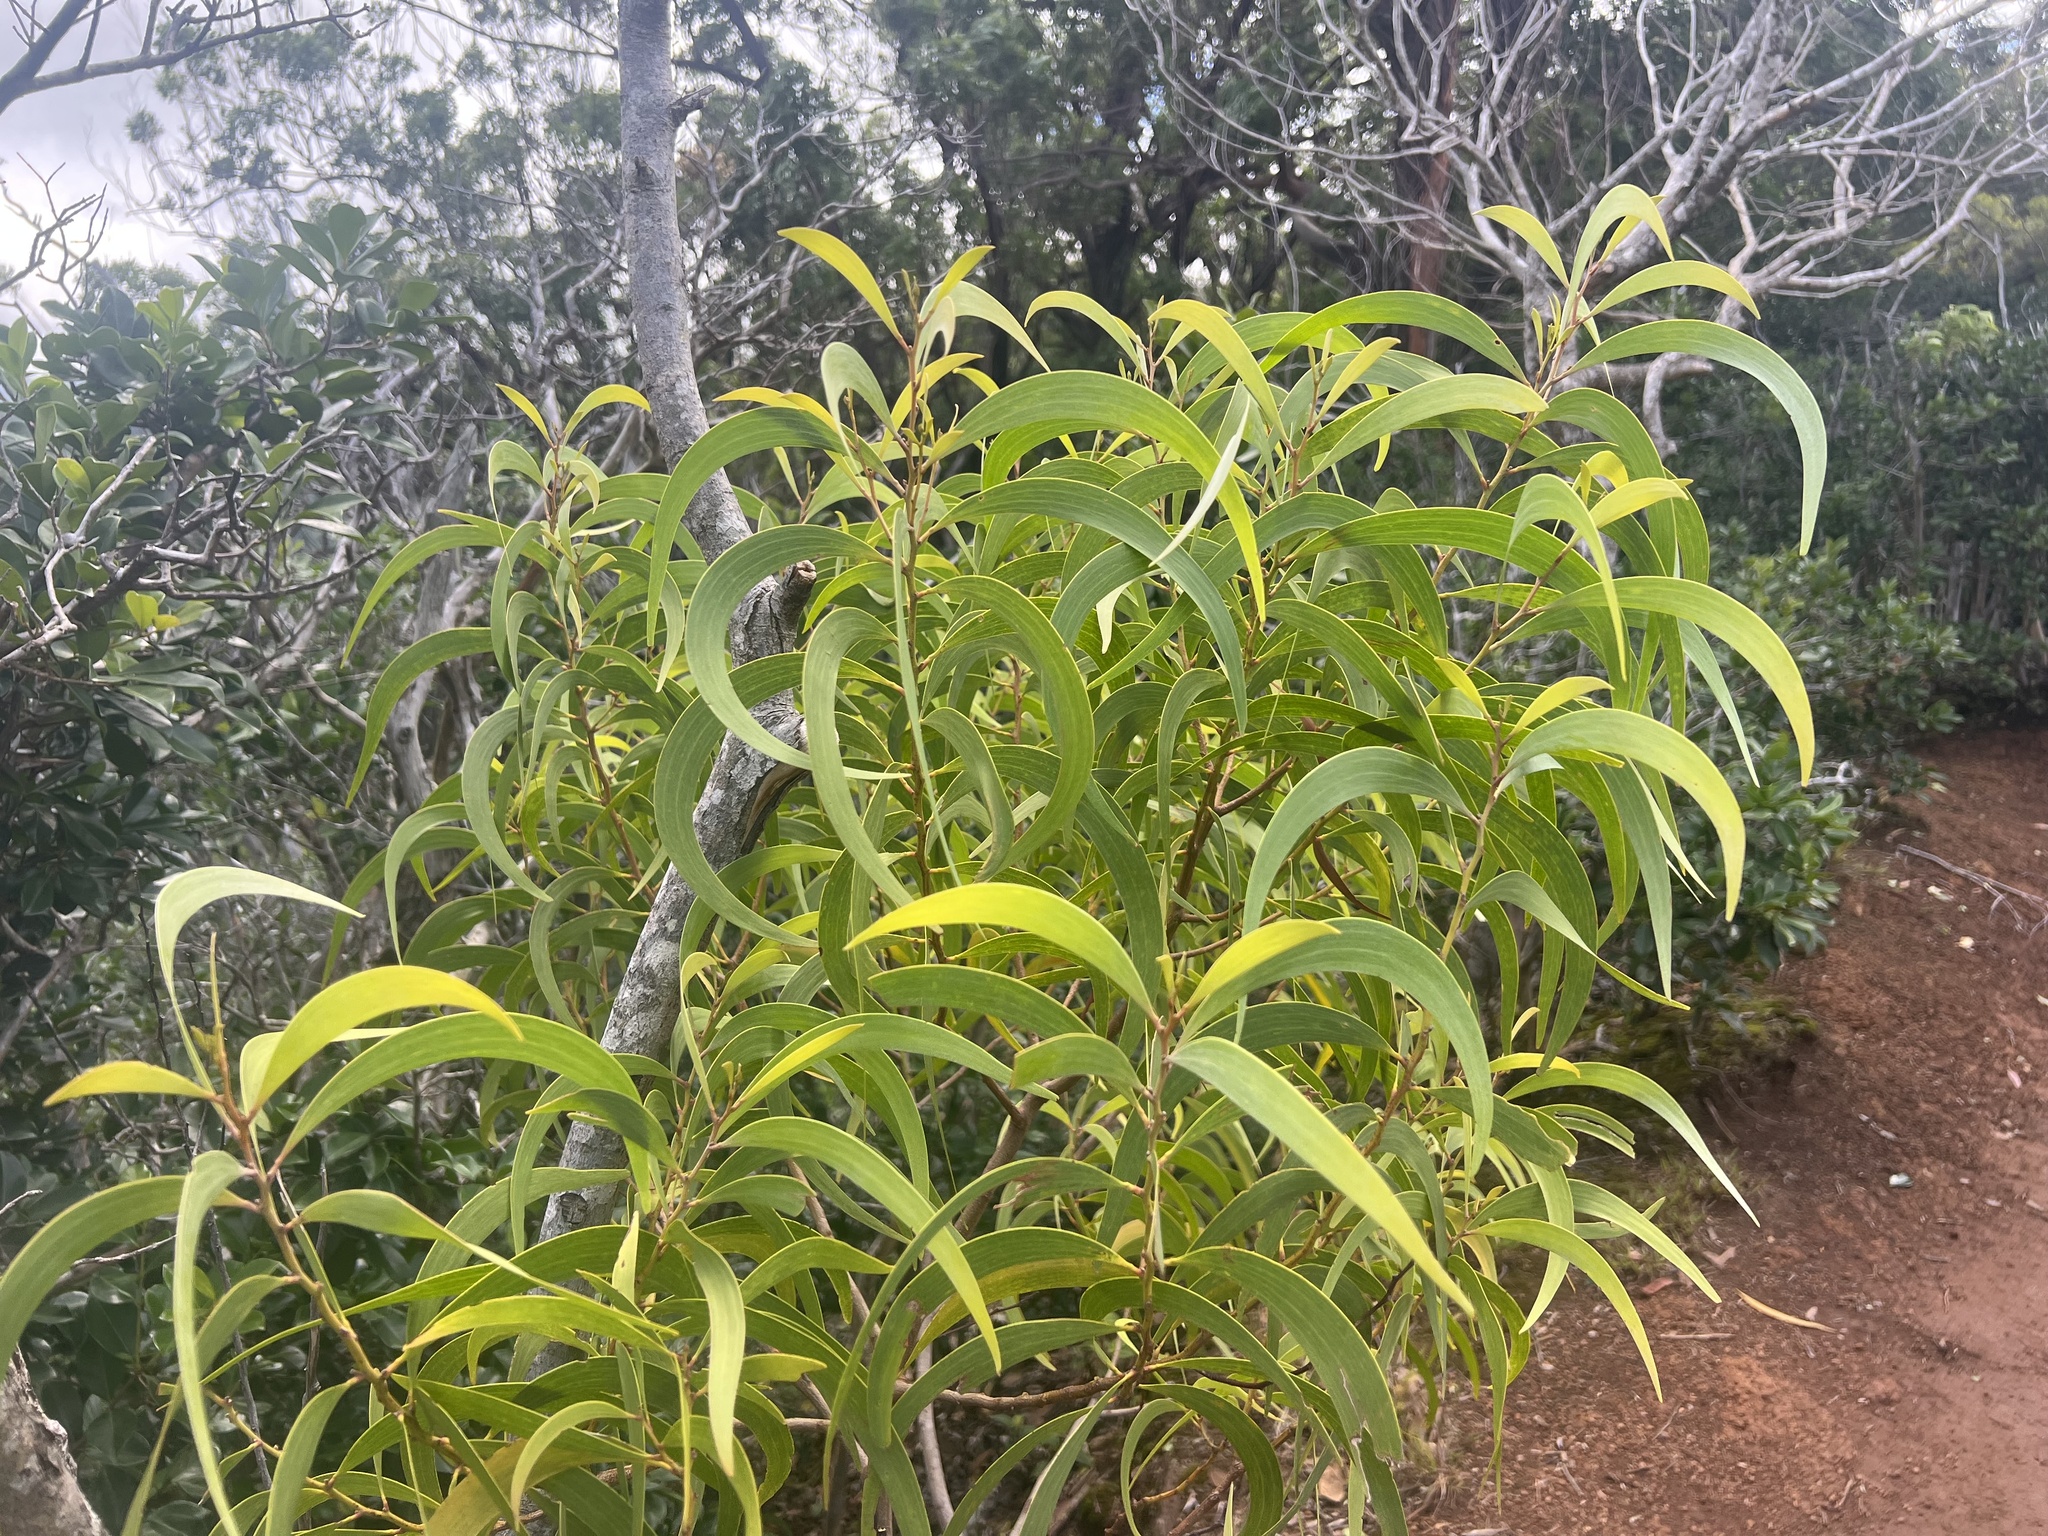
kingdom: Plantae
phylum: Tracheophyta
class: Magnoliopsida
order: Fabales
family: Fabaceae
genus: Acacia
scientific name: Acacia koa
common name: Gray koa
